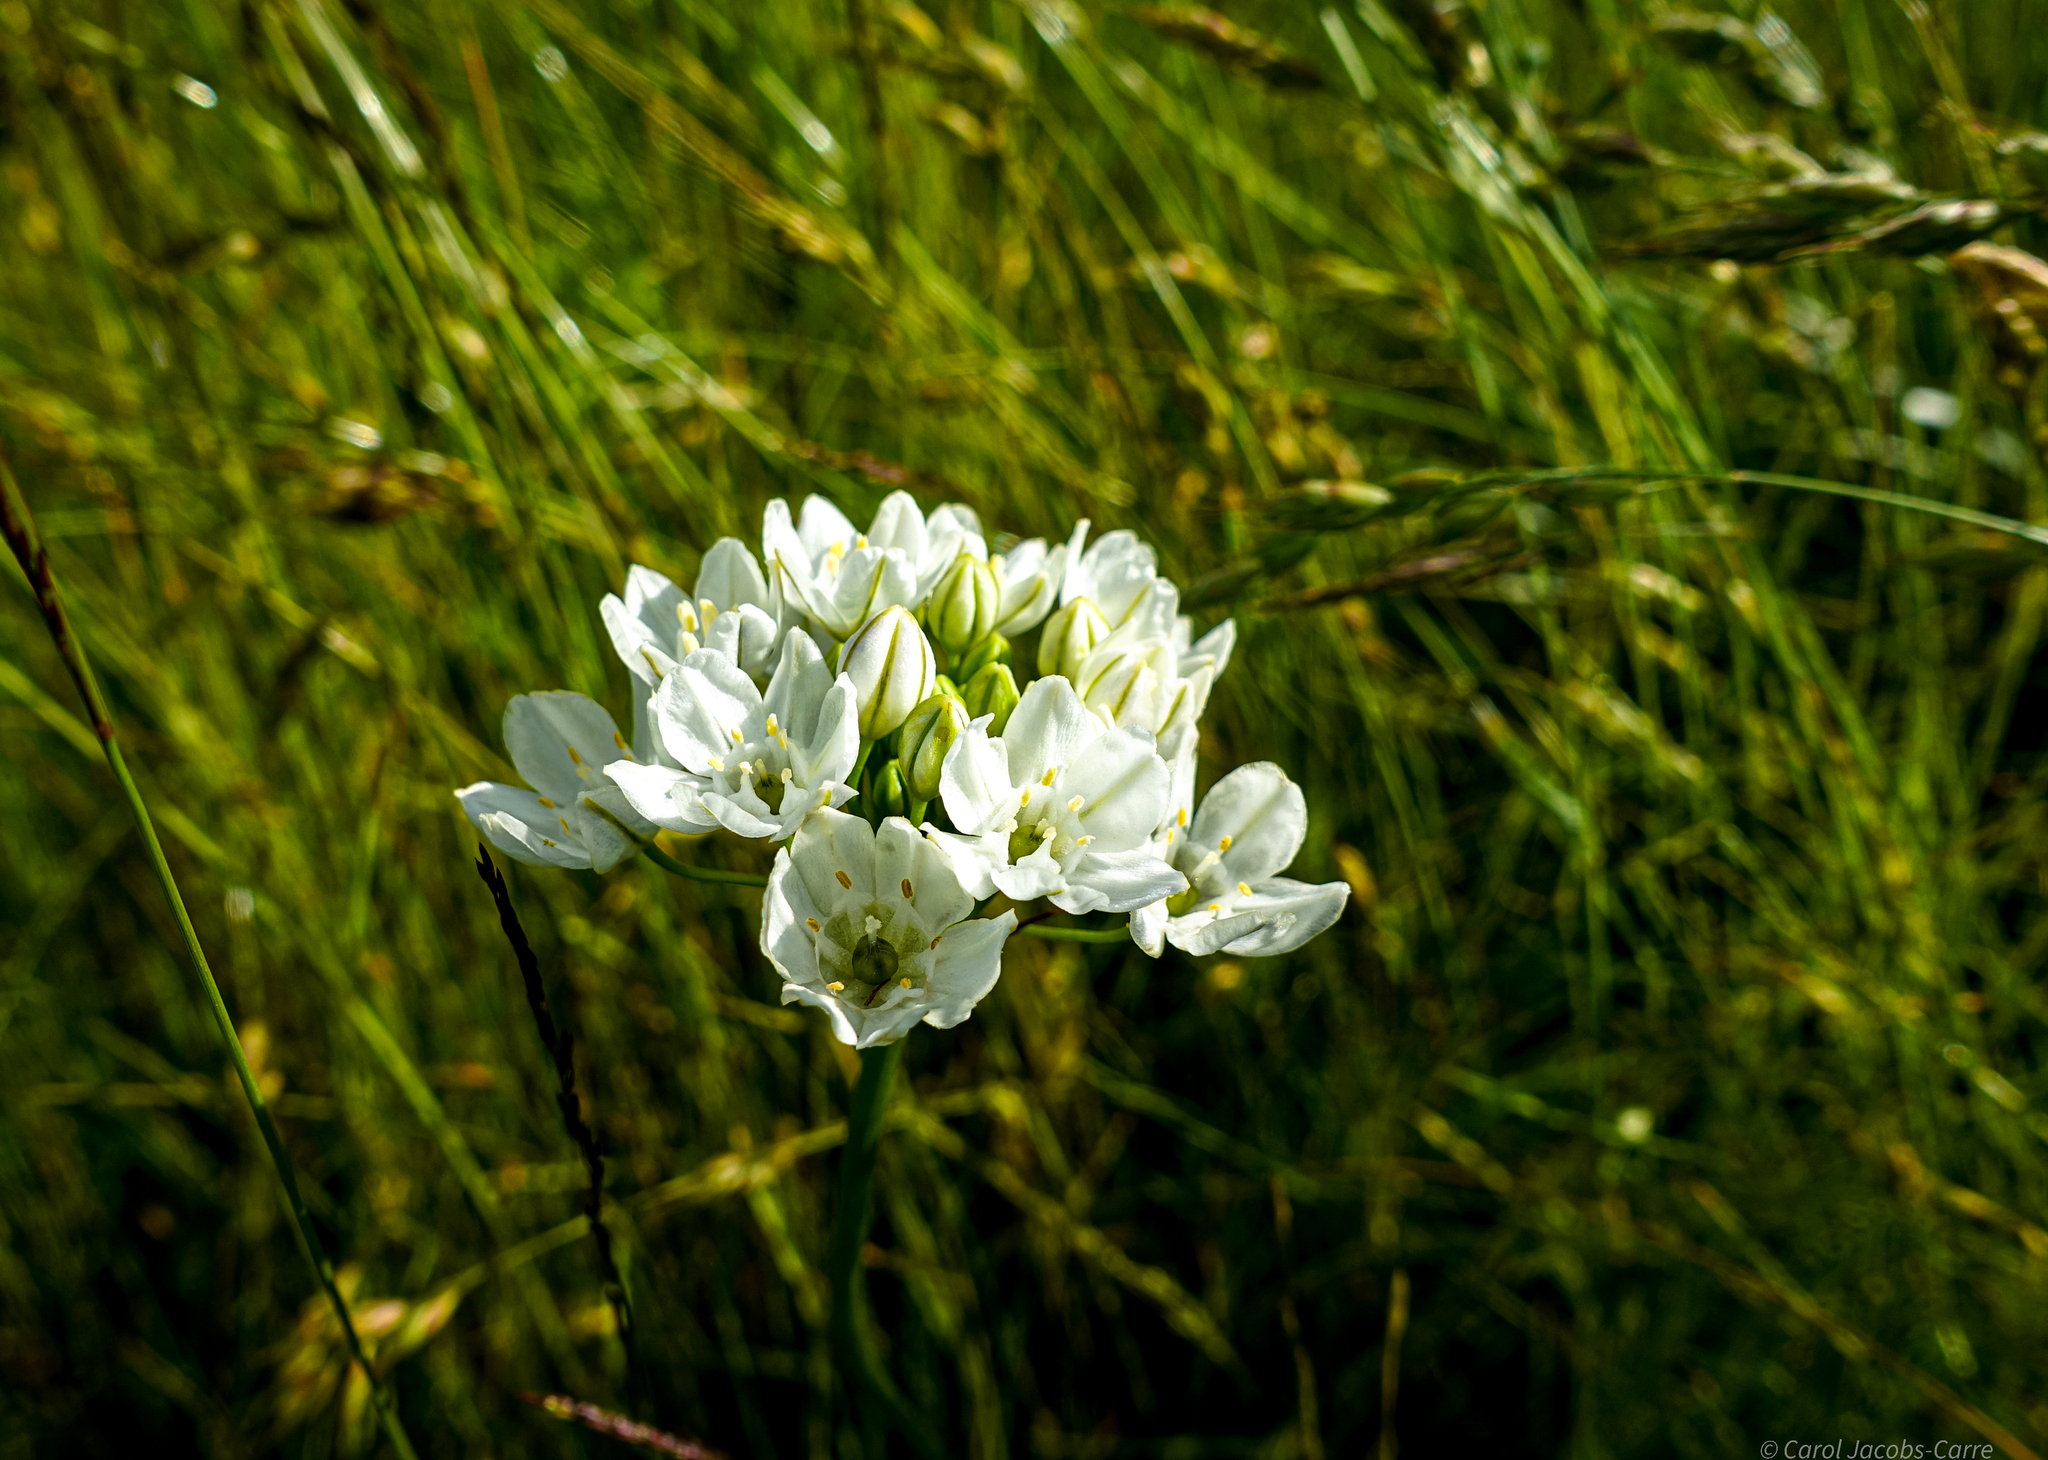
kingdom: Plantae
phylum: Tracheophyta
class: Liliopsida
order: Asparagales
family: Asparagaceae
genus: Triteleia
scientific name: Triteleia hyacinthina
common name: White brodiaea
